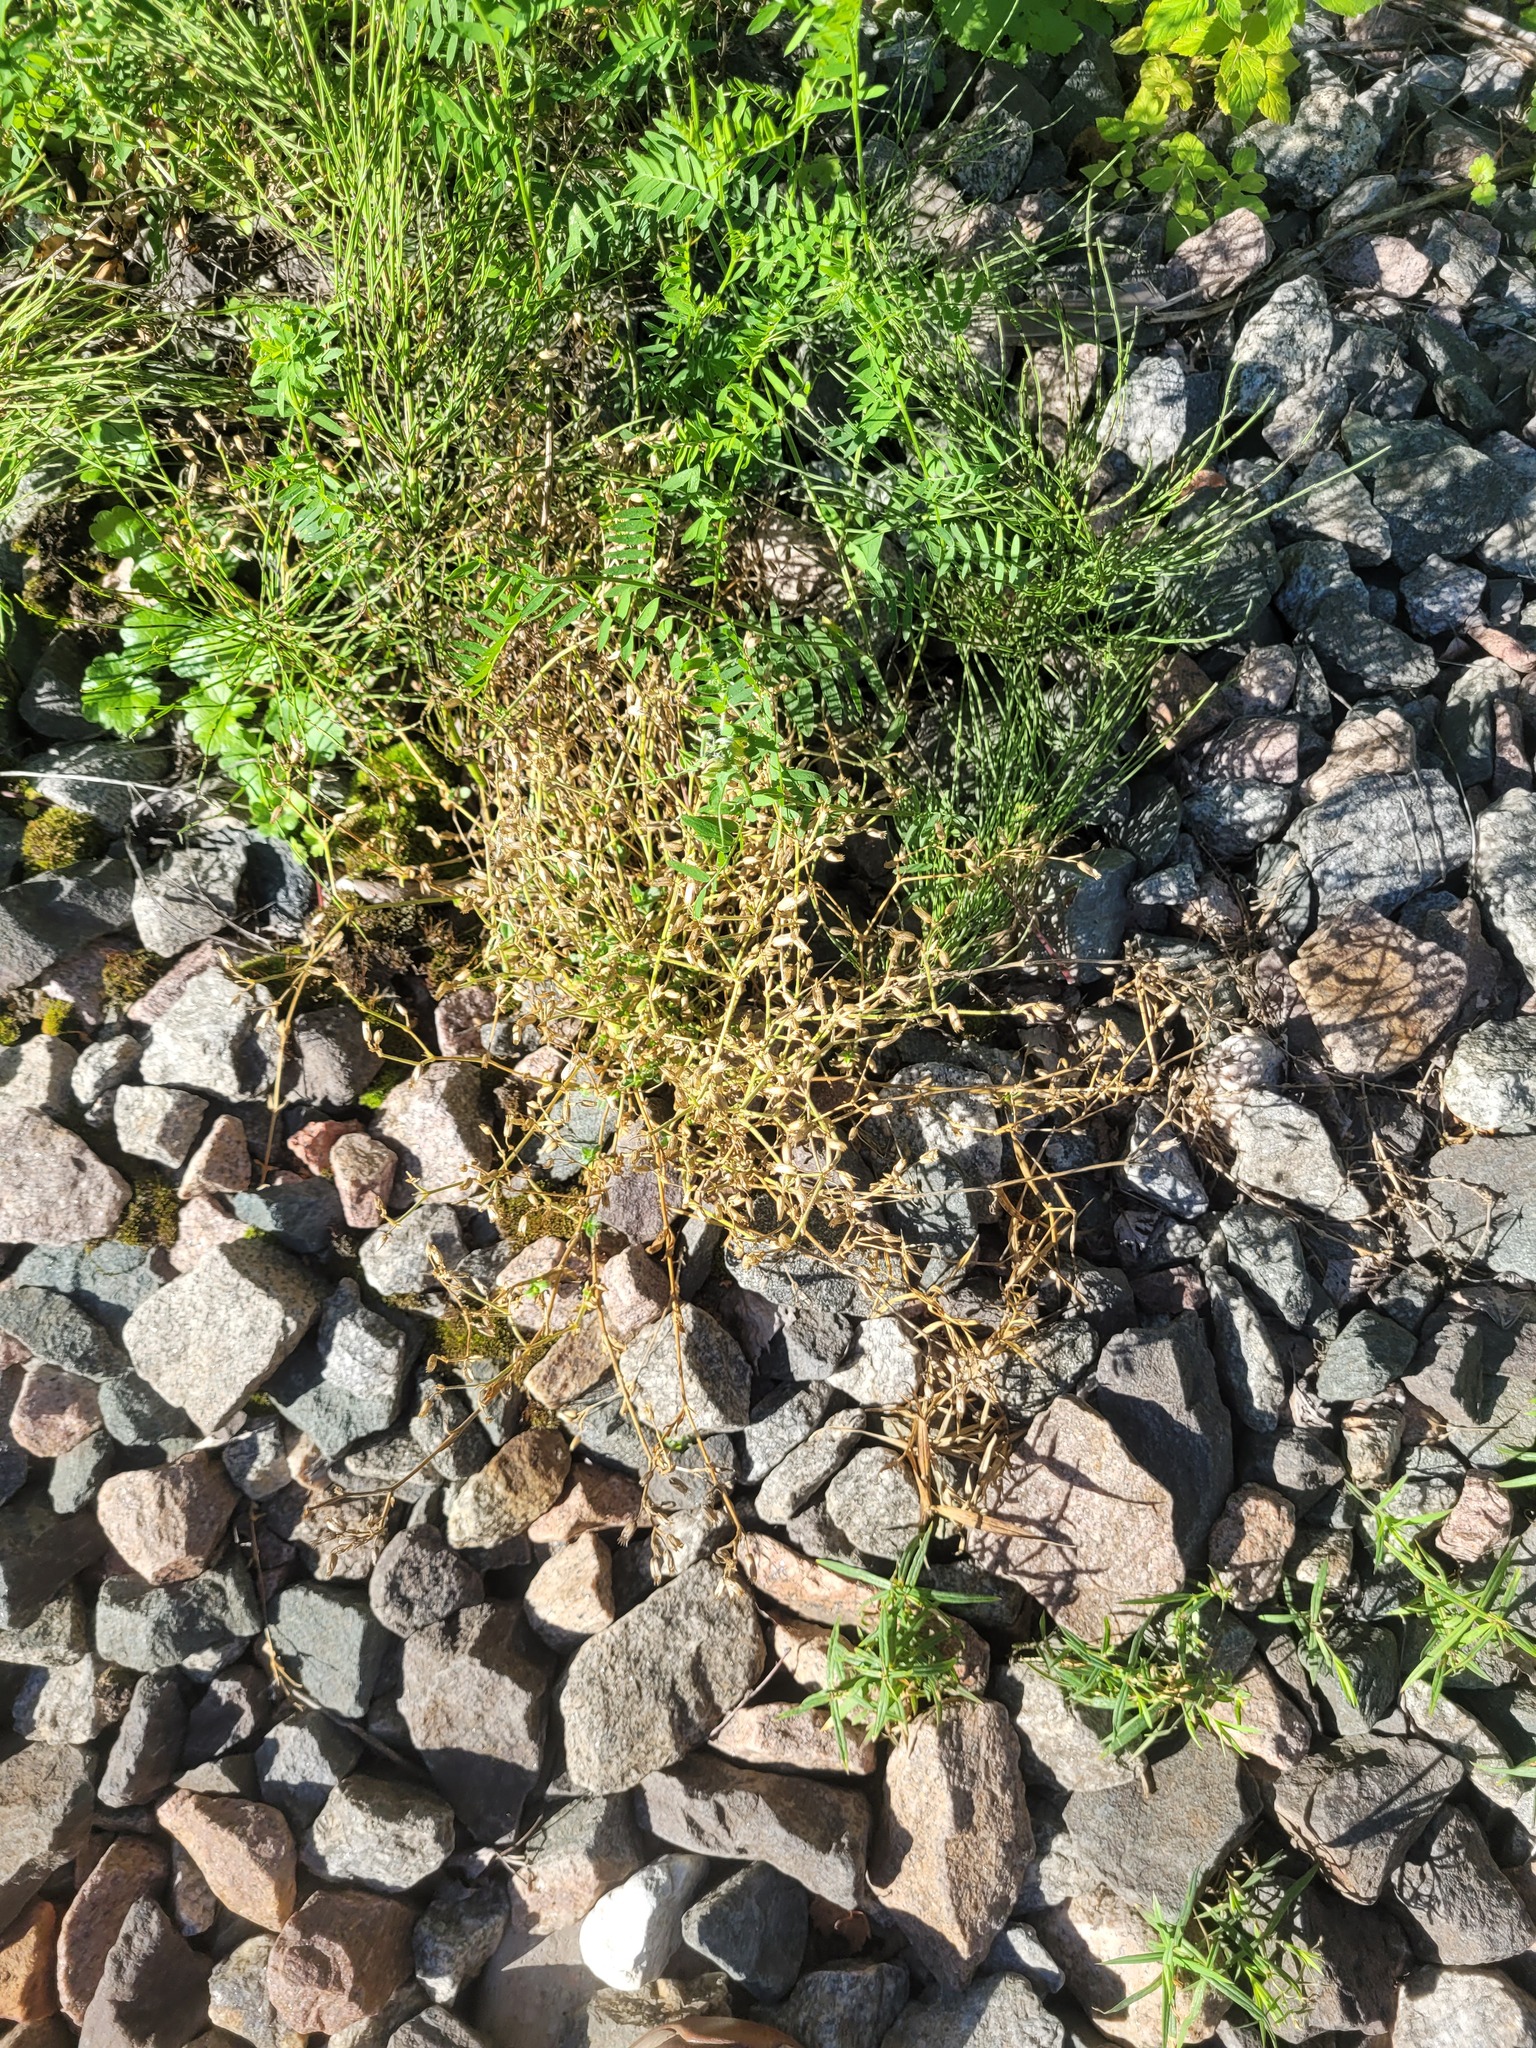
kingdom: Plantae
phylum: Tracheophyta
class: Magnoliopsida
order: Caryophyllales
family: Caryophyllaceae
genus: Cerastium
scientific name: Cerastium holosteoides
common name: Big chickweed
